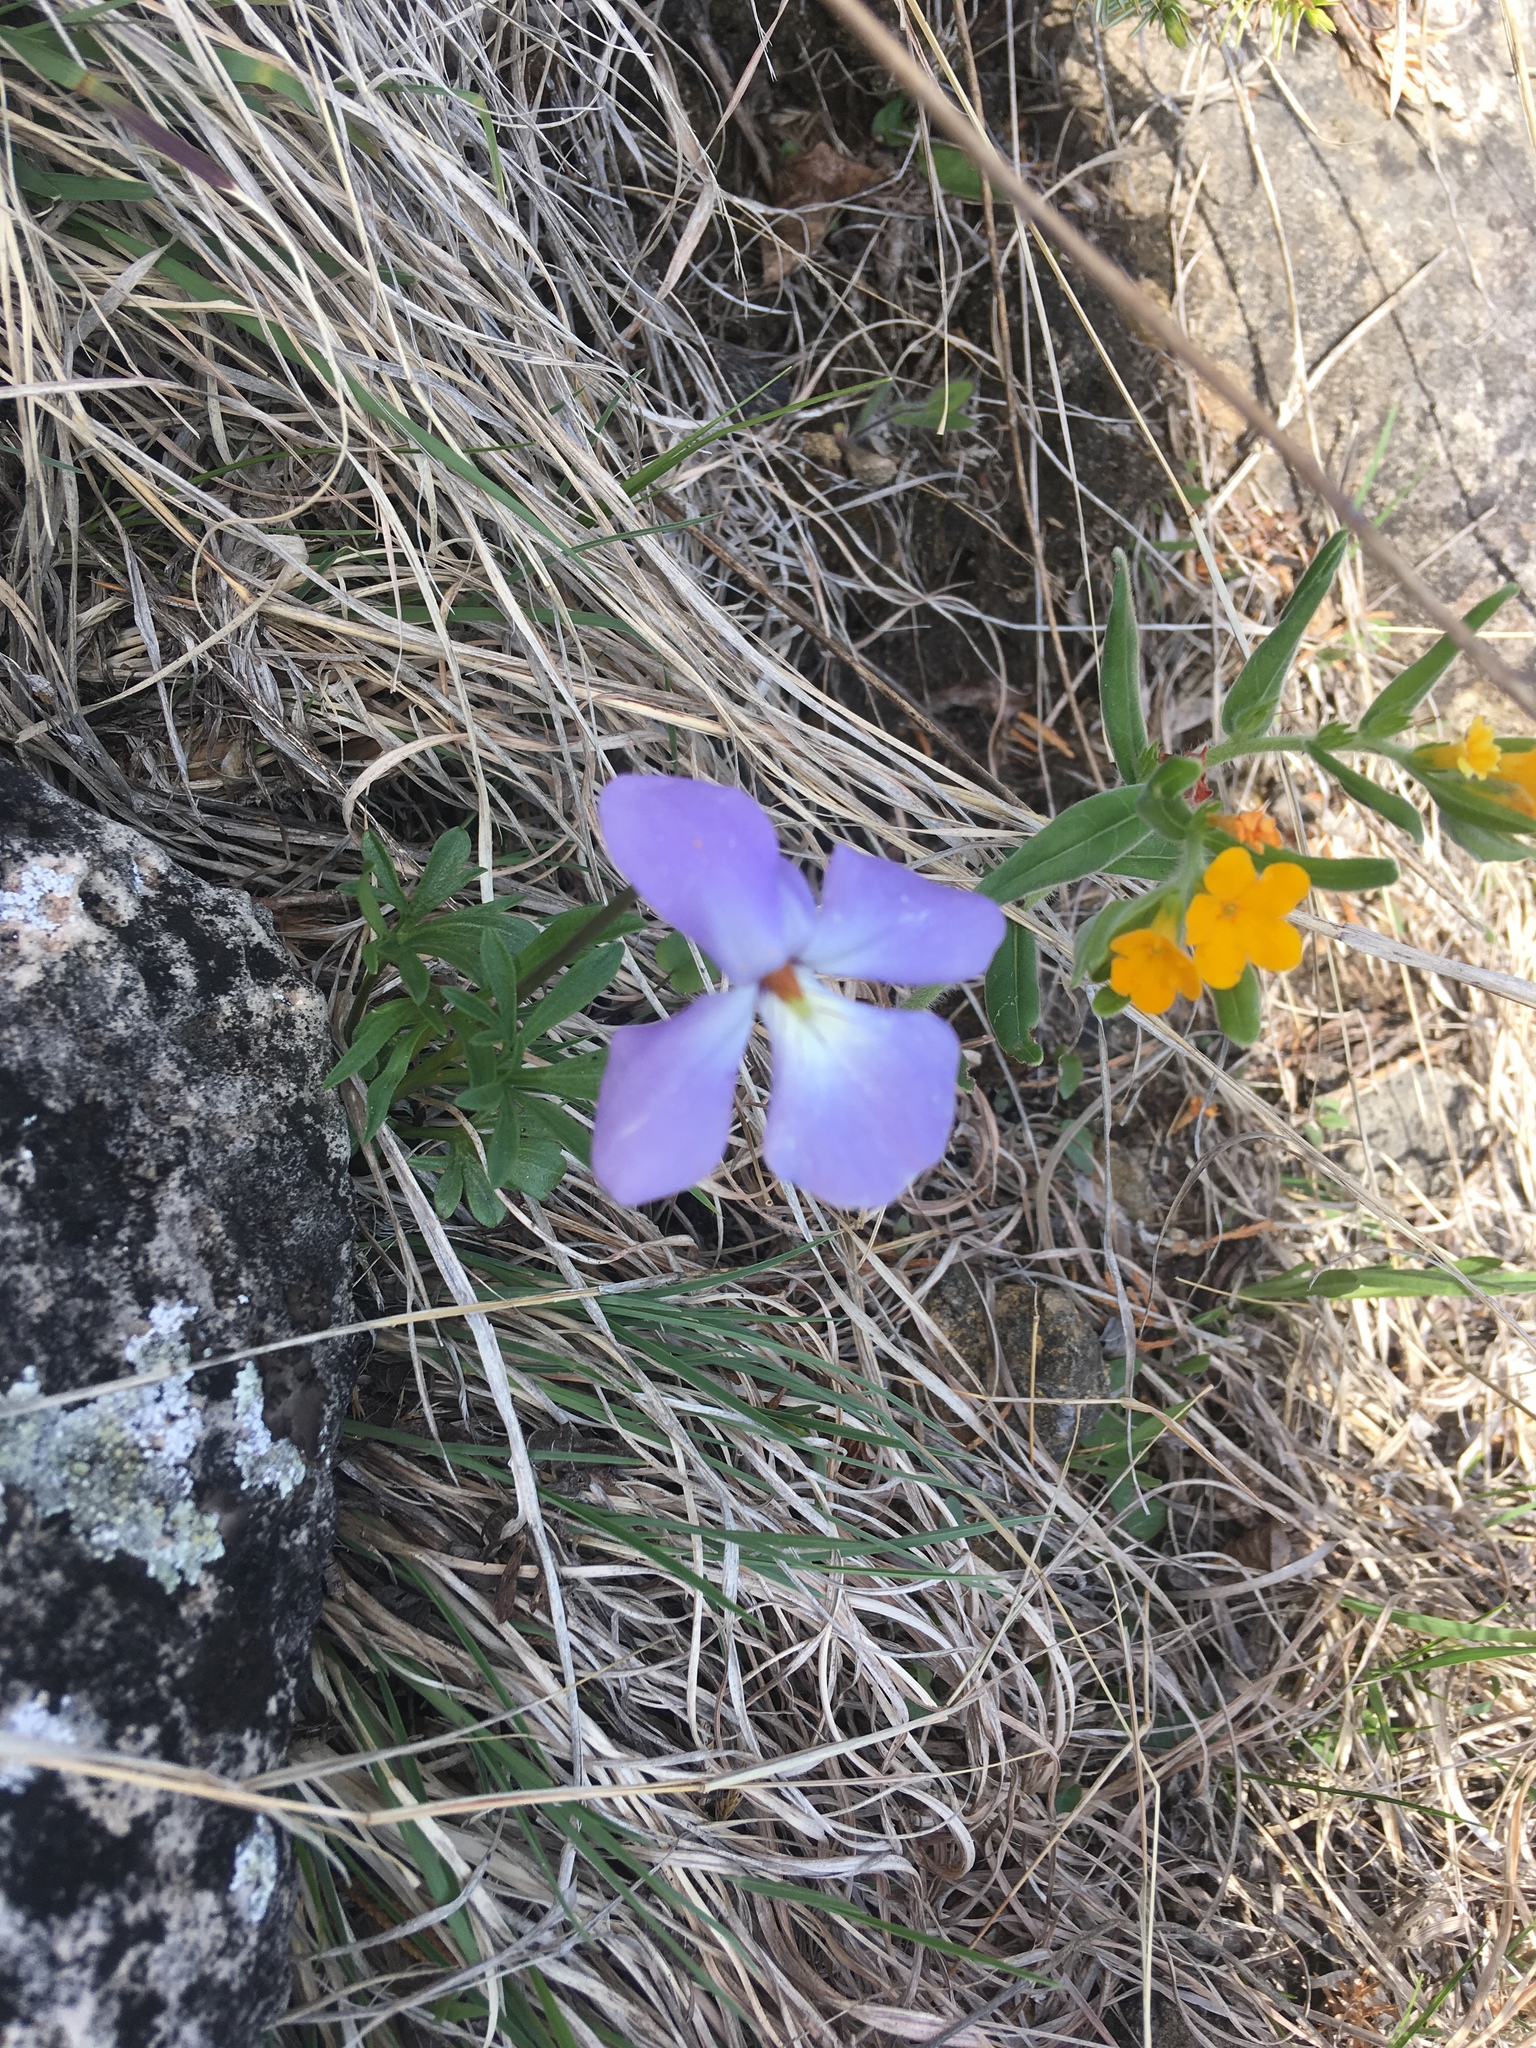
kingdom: Plantae
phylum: Tracheophyta
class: Magnoliopsida
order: Malpighiales
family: Violaceae
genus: Viola
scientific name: Viola pedata
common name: Pansy violet
